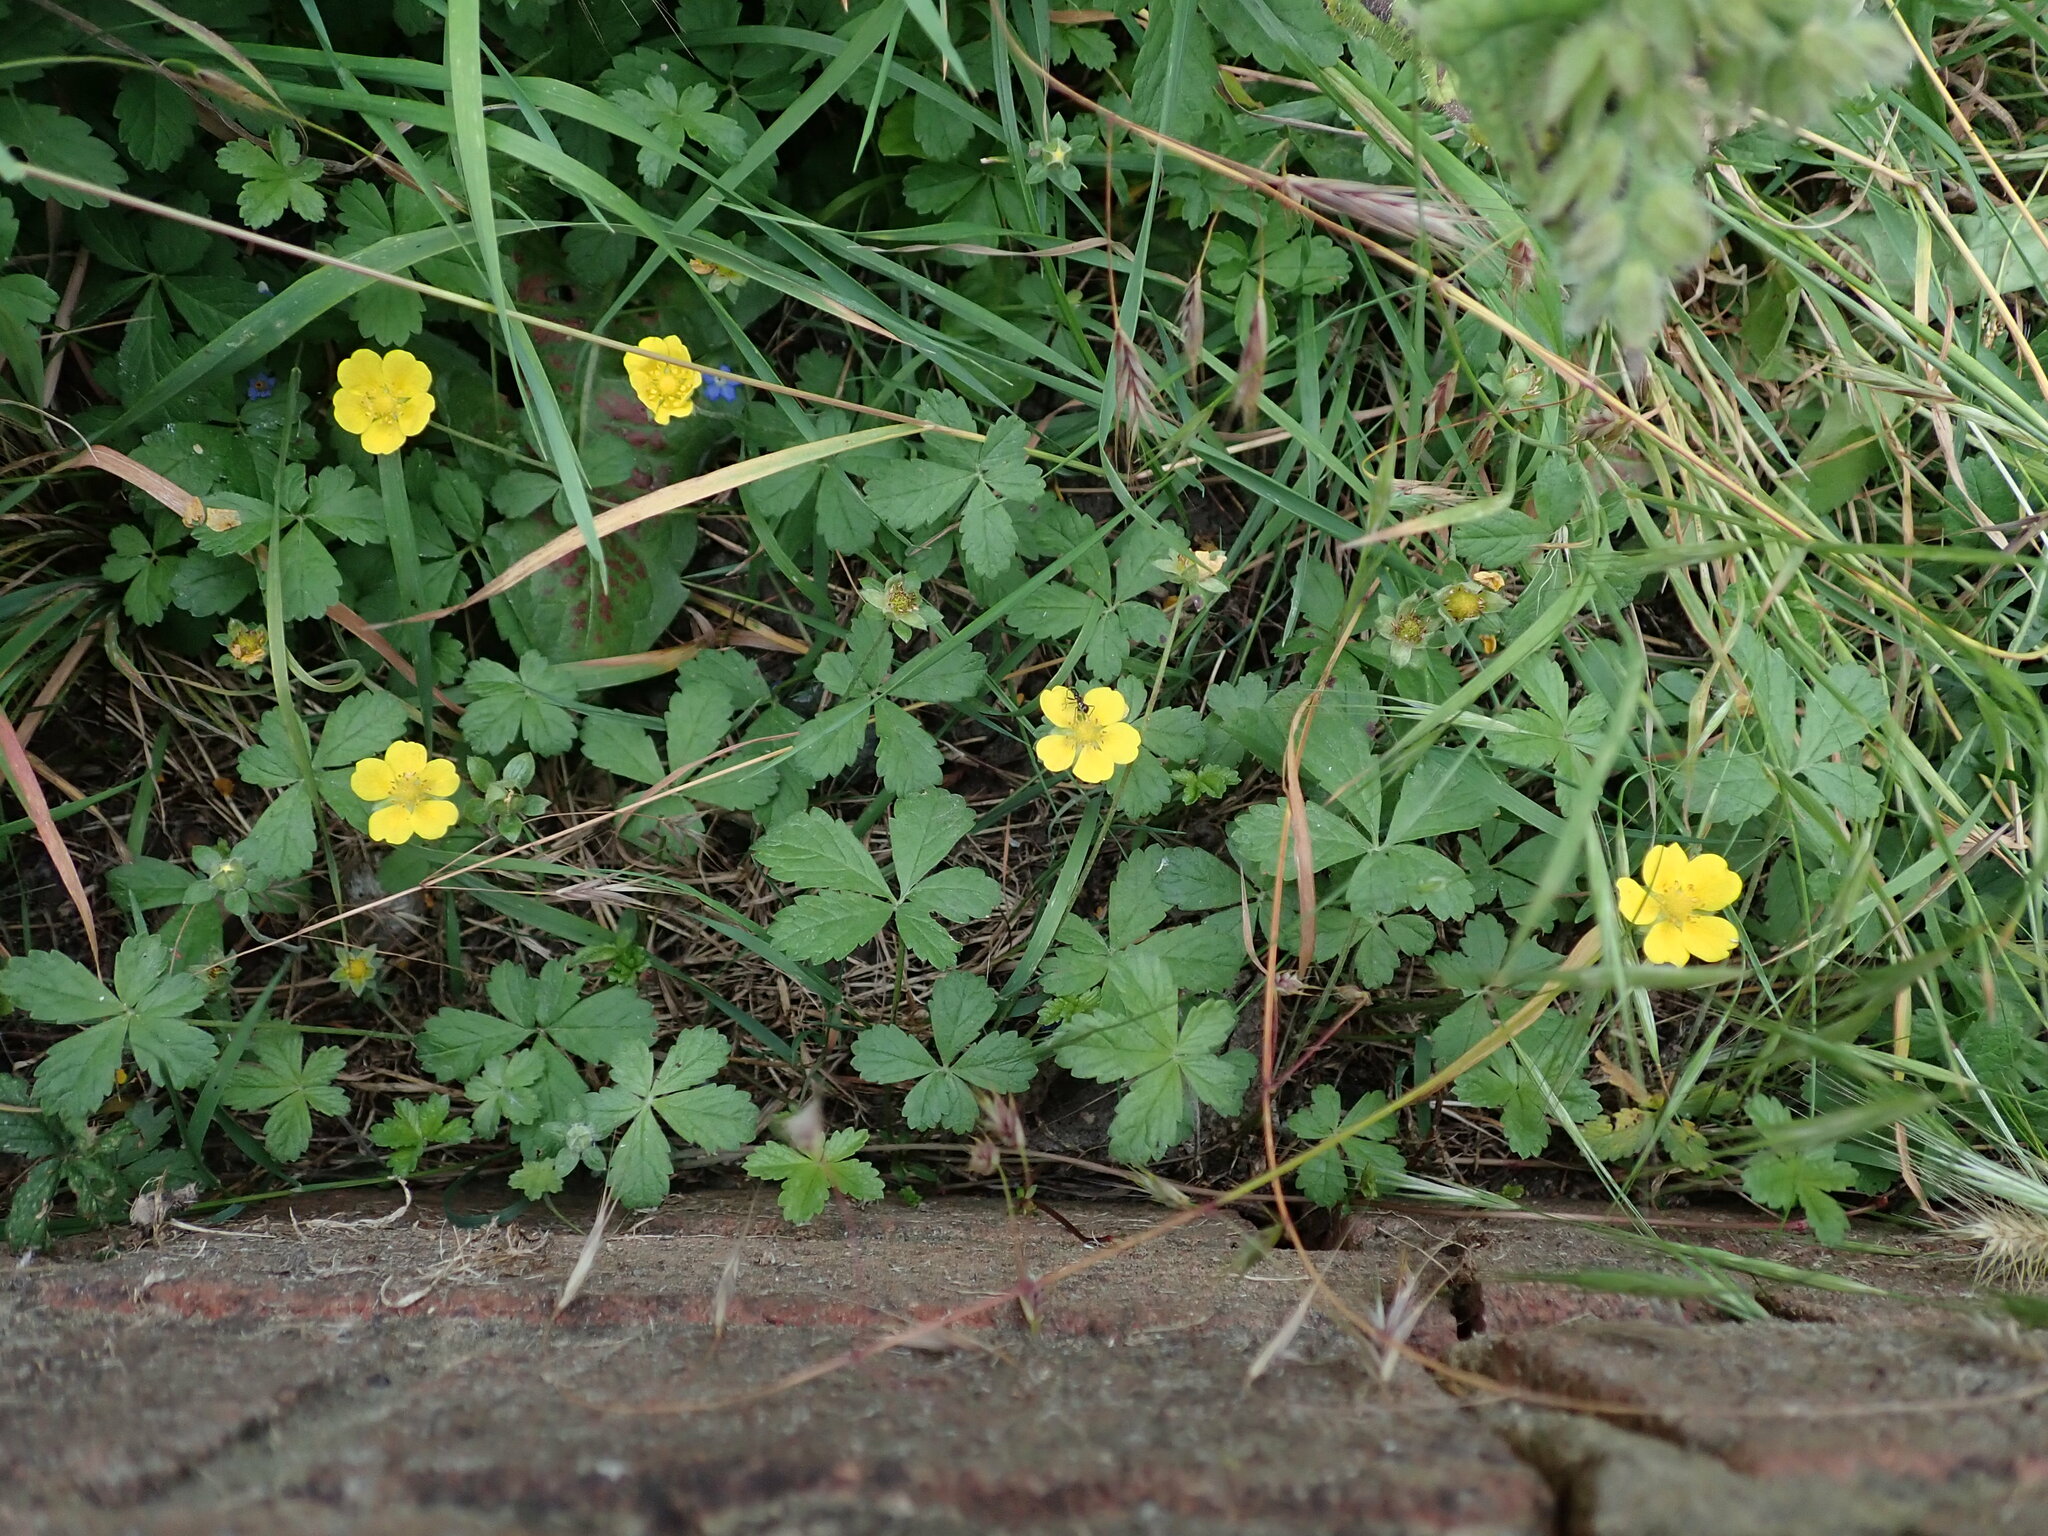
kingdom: Plantae
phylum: Tracheophyta
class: Magnoliopsida
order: Rosales
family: Rosaceae
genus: Potentilla
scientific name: Potentilla reptans
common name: Creeping cinquefoil
